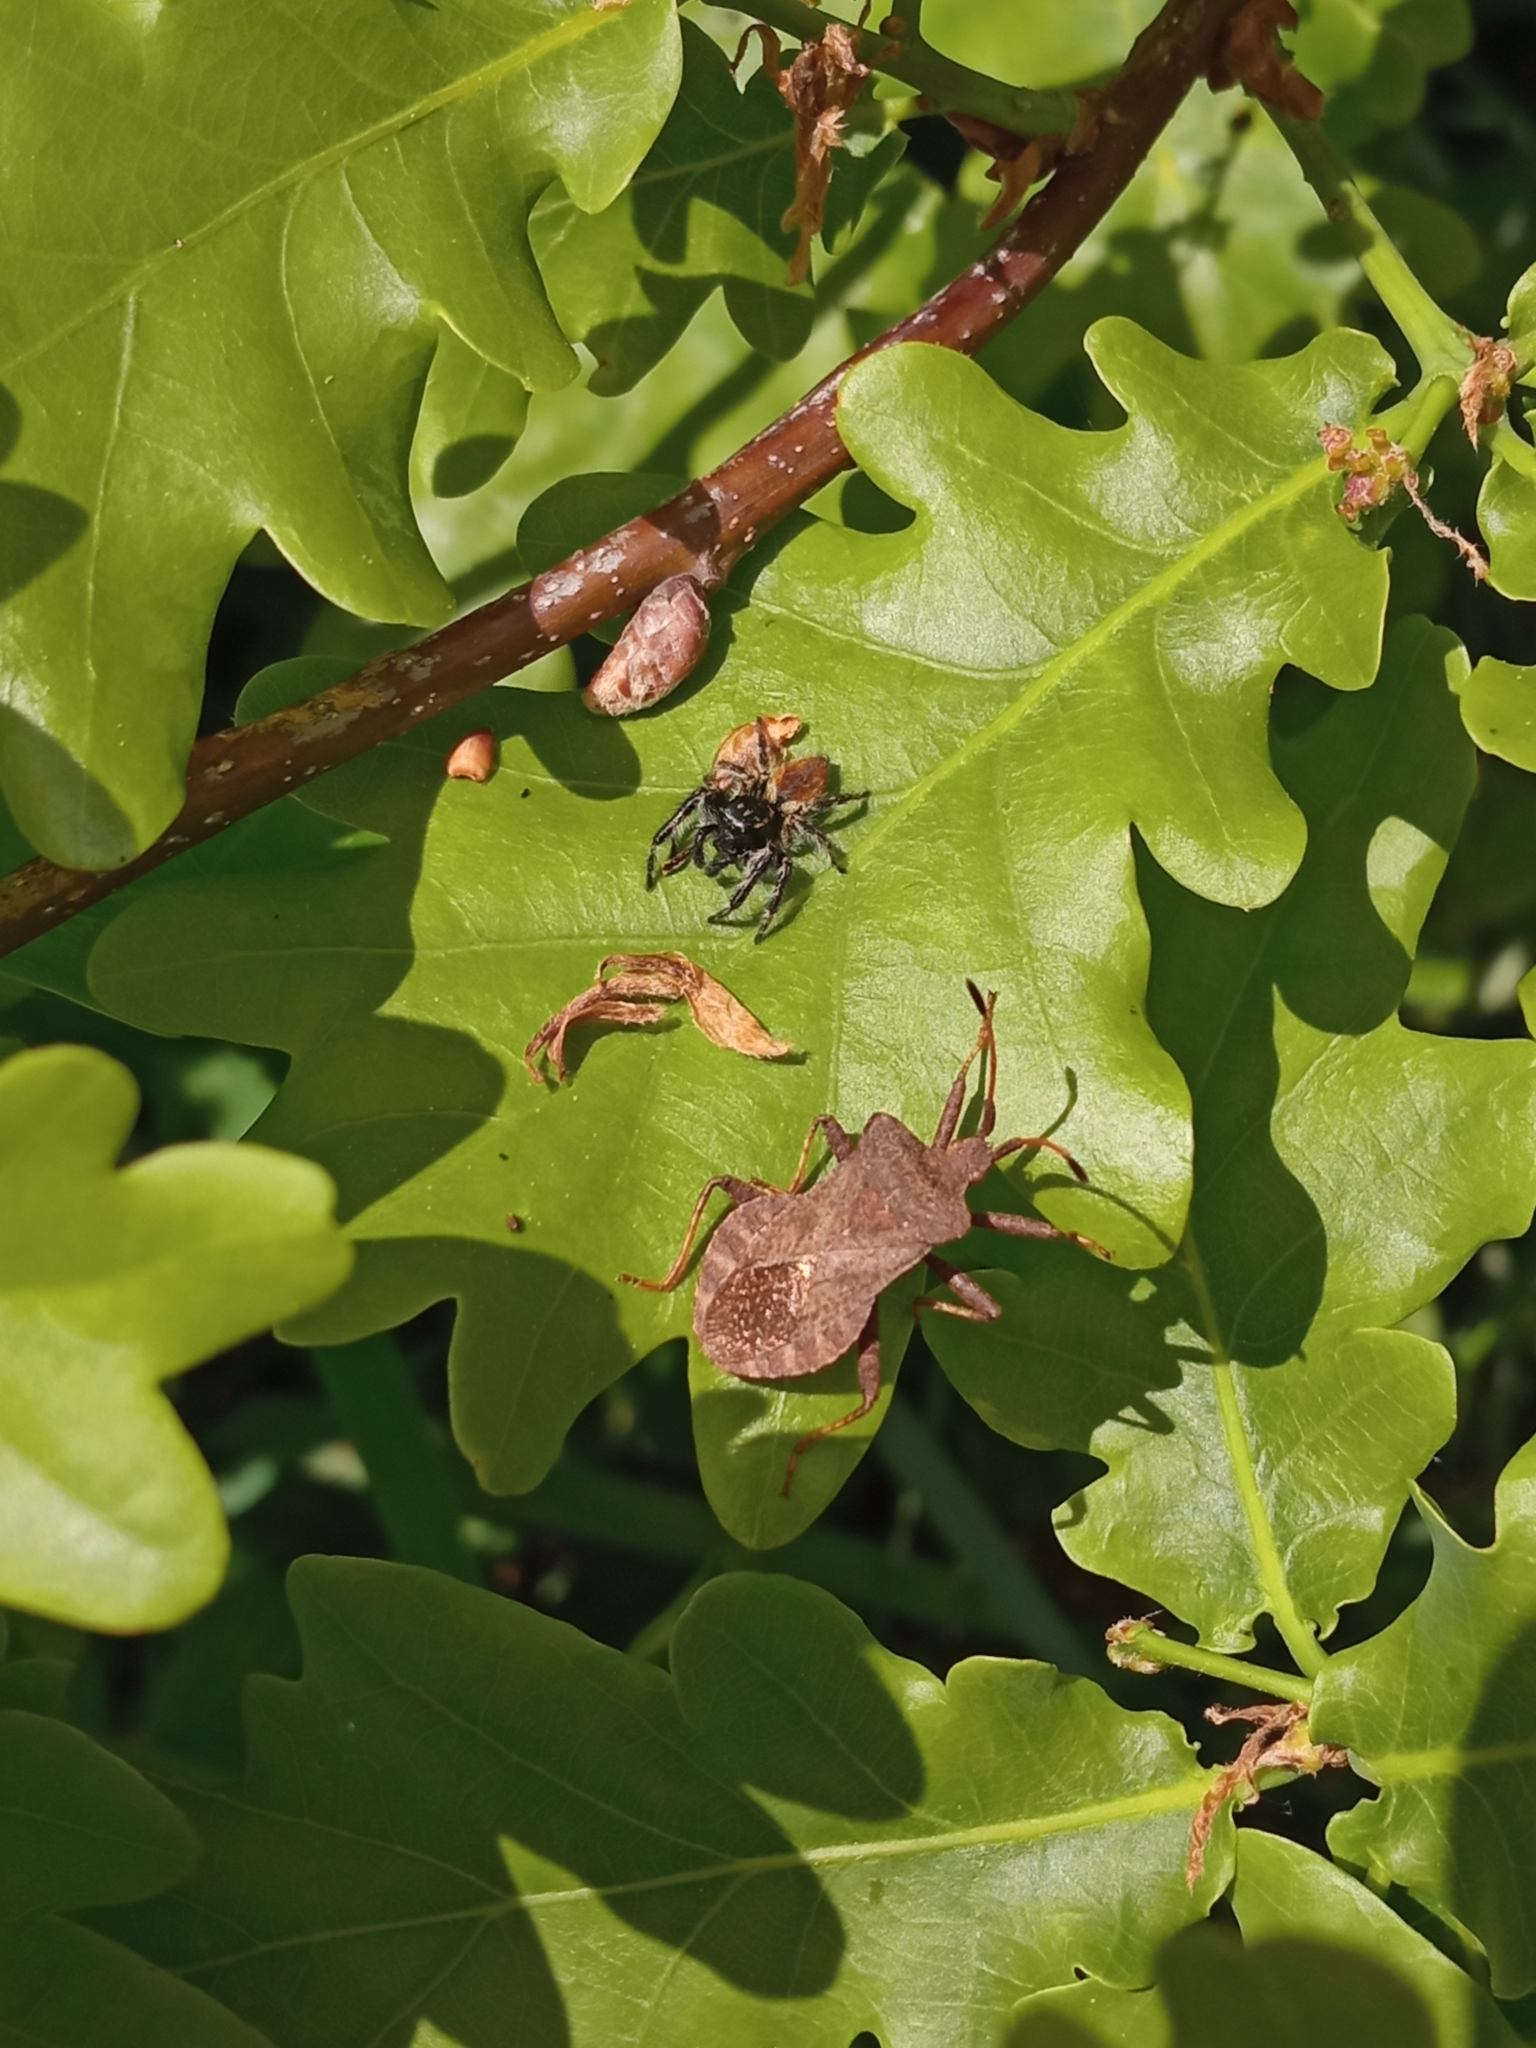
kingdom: Animalia
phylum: Arthropoda
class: Arachnida
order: Araneae
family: Salticidae
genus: Carrhotus
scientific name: Carrhotus xanthogramma
